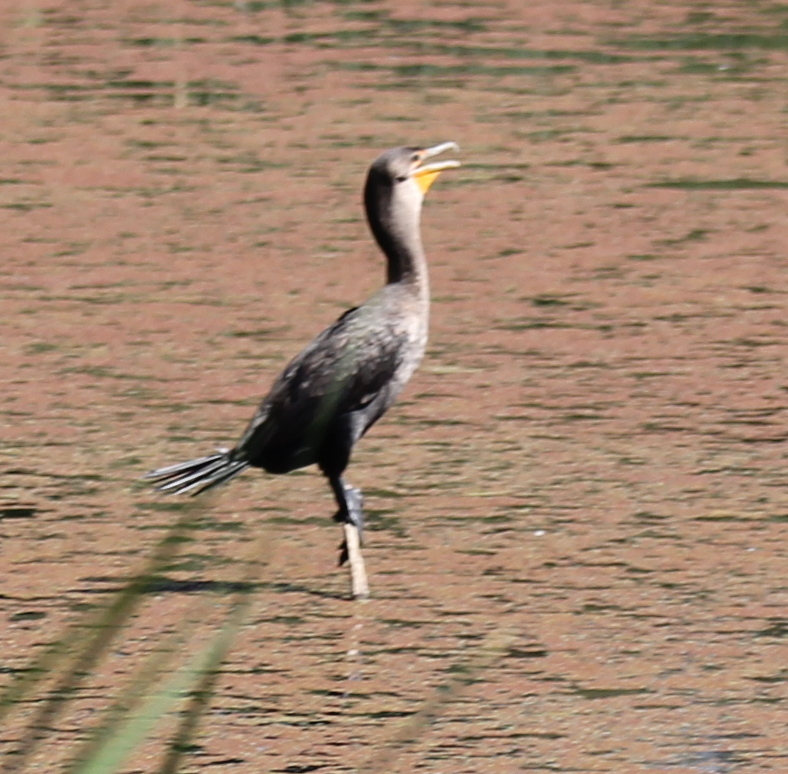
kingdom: Animalia
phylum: Chordata
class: Aves
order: Suliformes
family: Phalacrocoracidae
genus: Phalacrocorax
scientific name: Phalacrocorax auritus
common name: Double-crested cormorant
